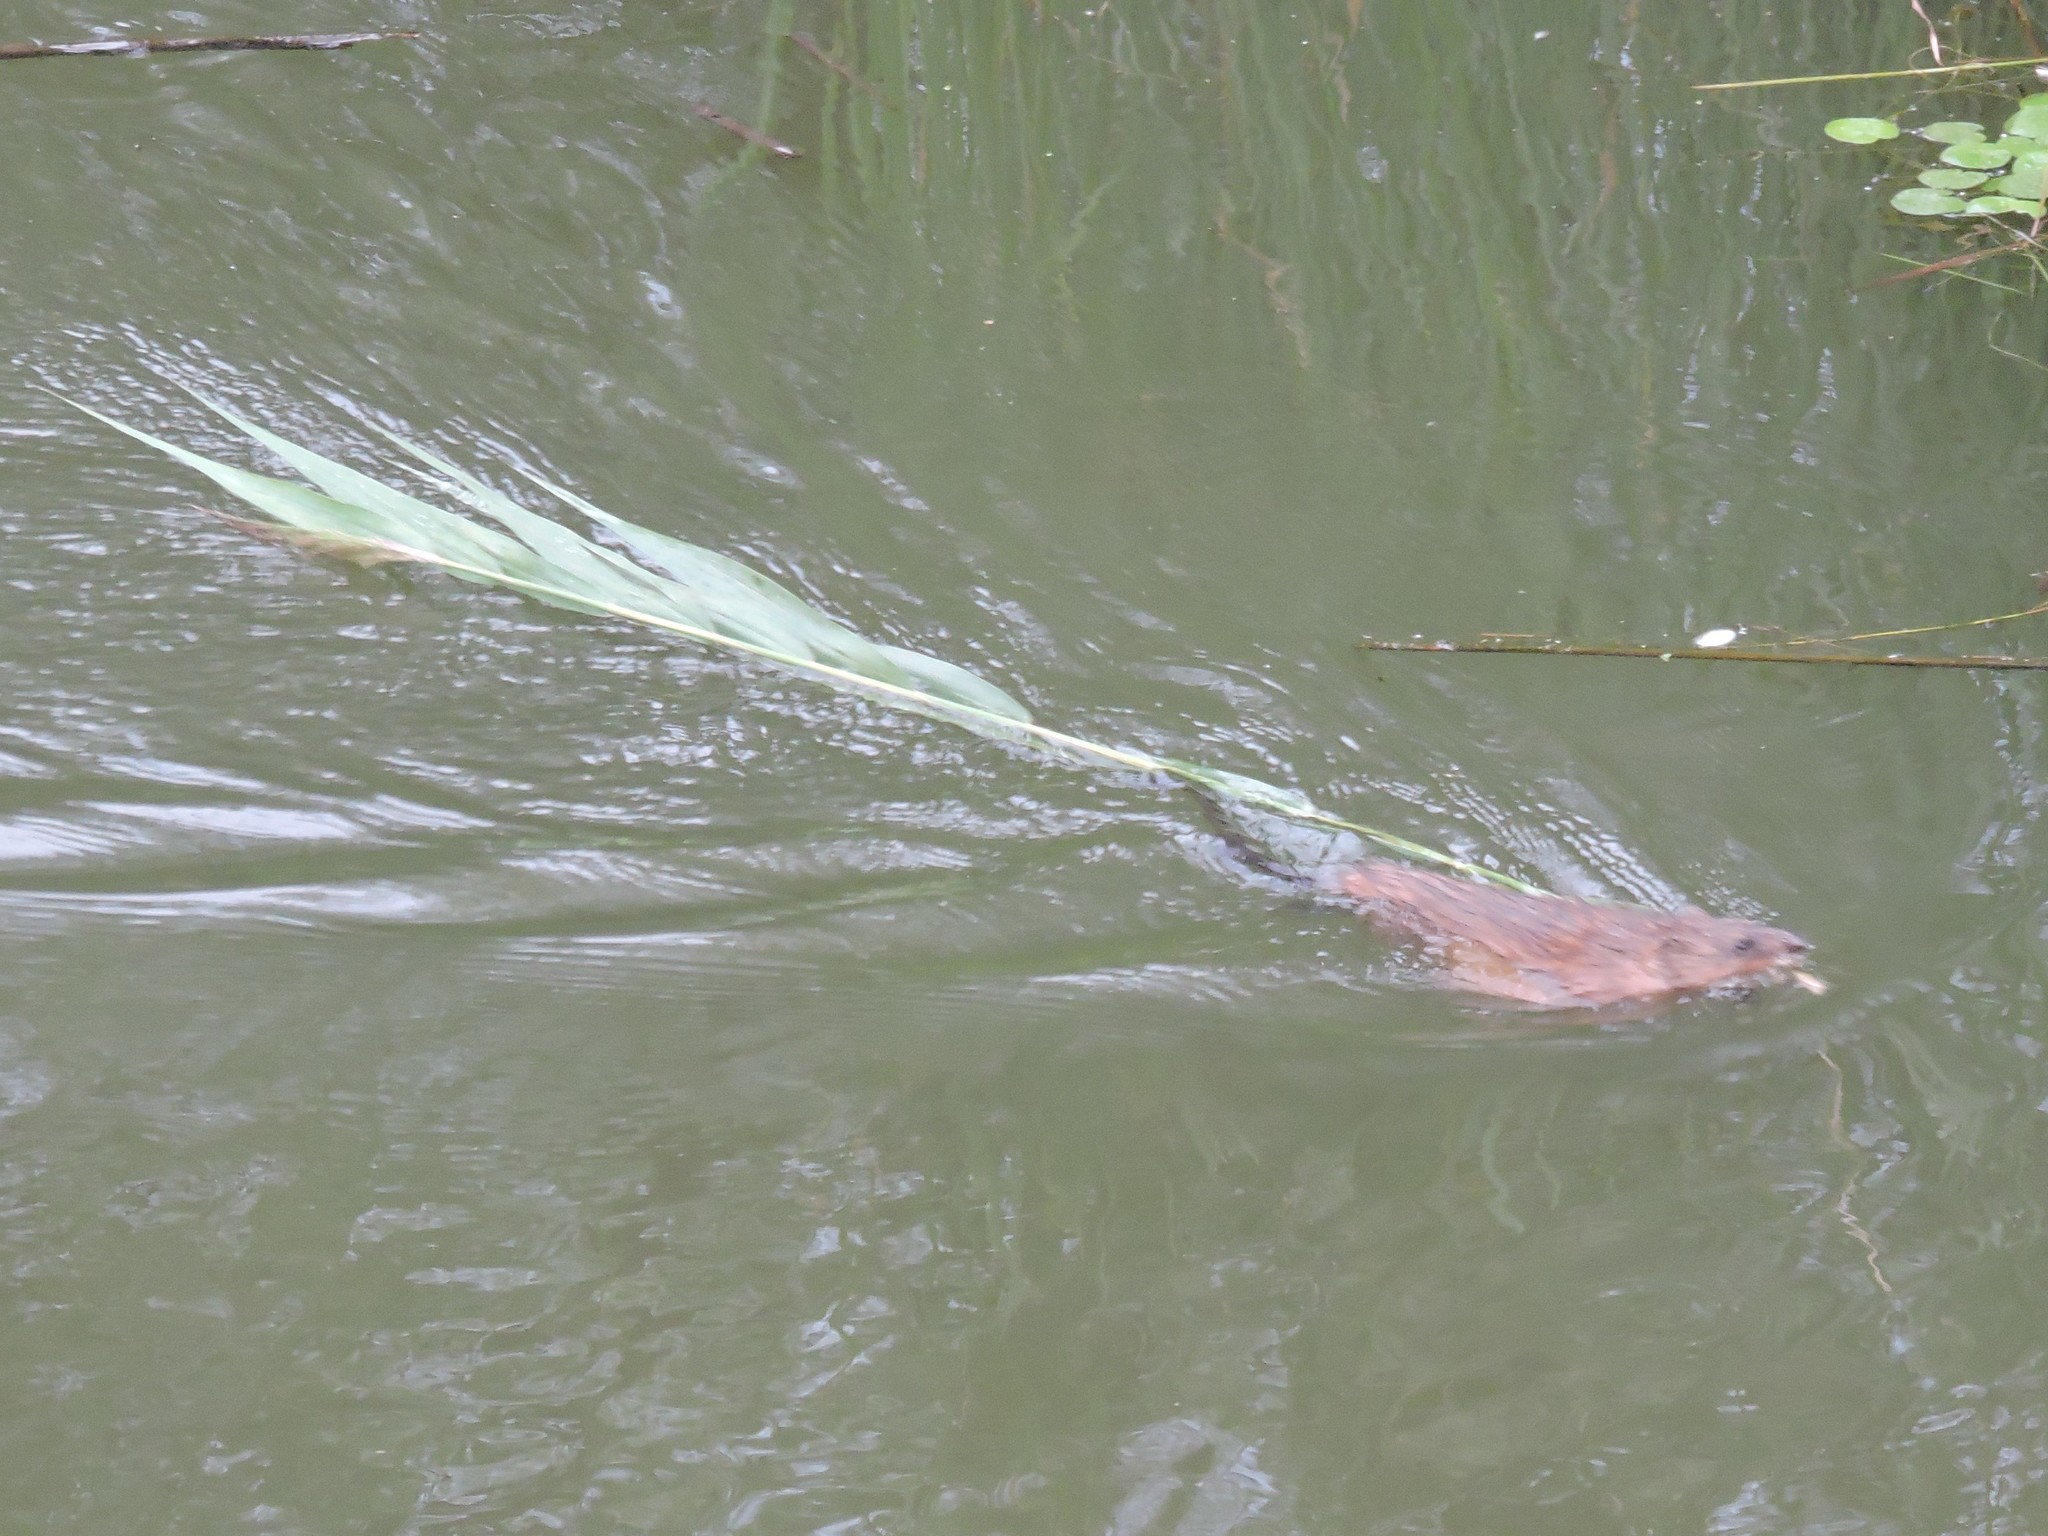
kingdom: Animalia
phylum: Chordata
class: Mammalia
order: Rodentia
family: Cricetidae
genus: Ondatra
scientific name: Ondatra zibethicus
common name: Muskrat
